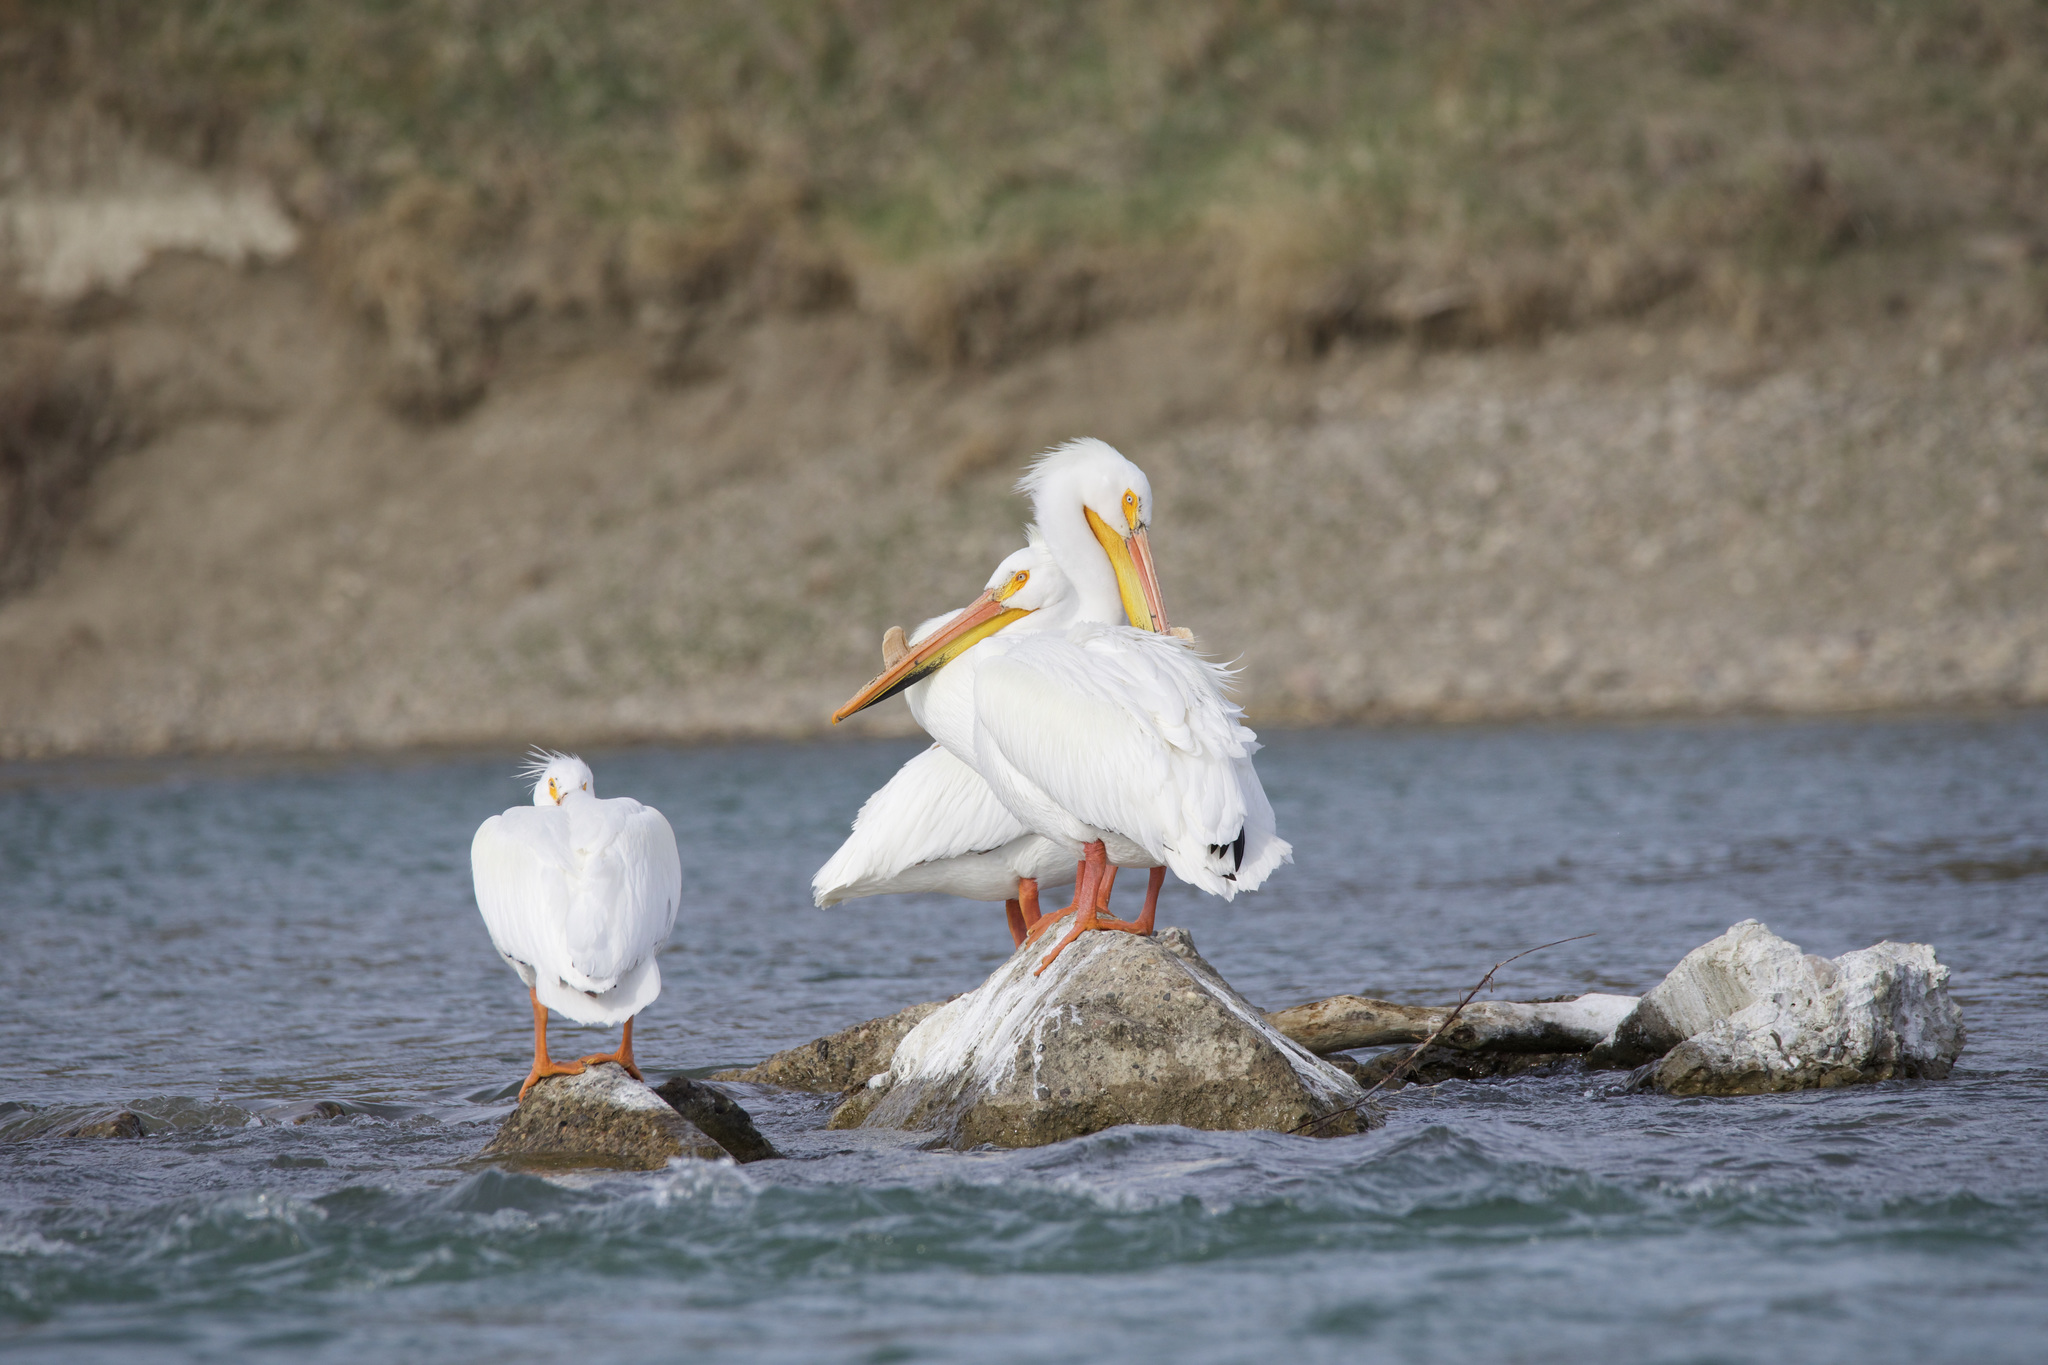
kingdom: Animalia
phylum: Chordata
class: Aves
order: Pelecaniformes
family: Pelecanidae
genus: Pelecanus
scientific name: Pelecanus erythrorhynchos
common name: American white pelican
